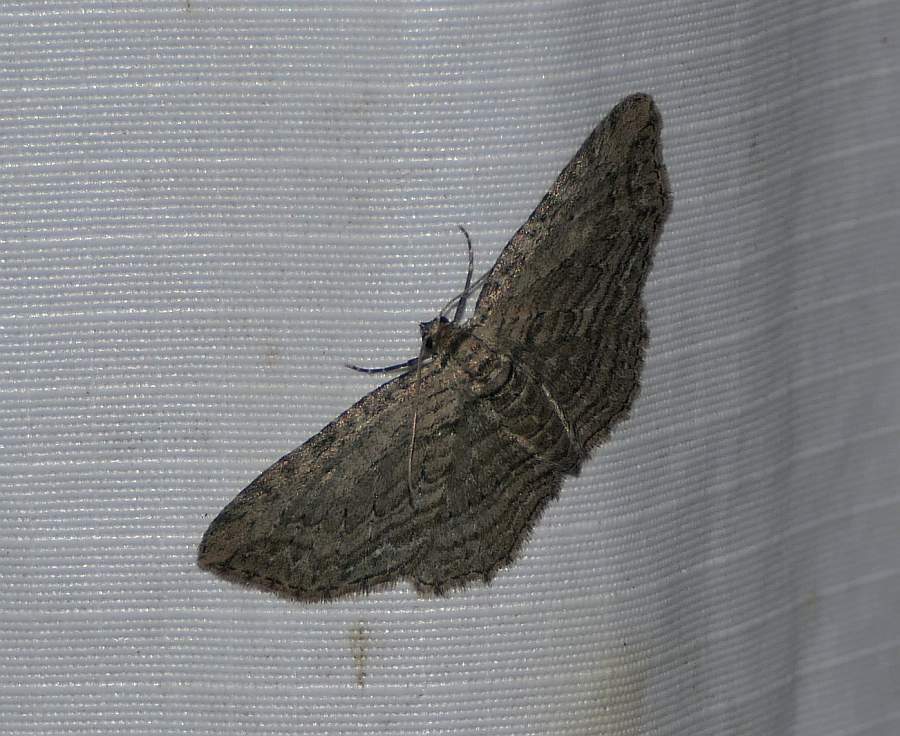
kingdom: Animalia
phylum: Arthropoda
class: Insecta
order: Lepidoptera
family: Geometridae
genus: Horisme
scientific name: Horisme intestinata
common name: Brown bark carpet
